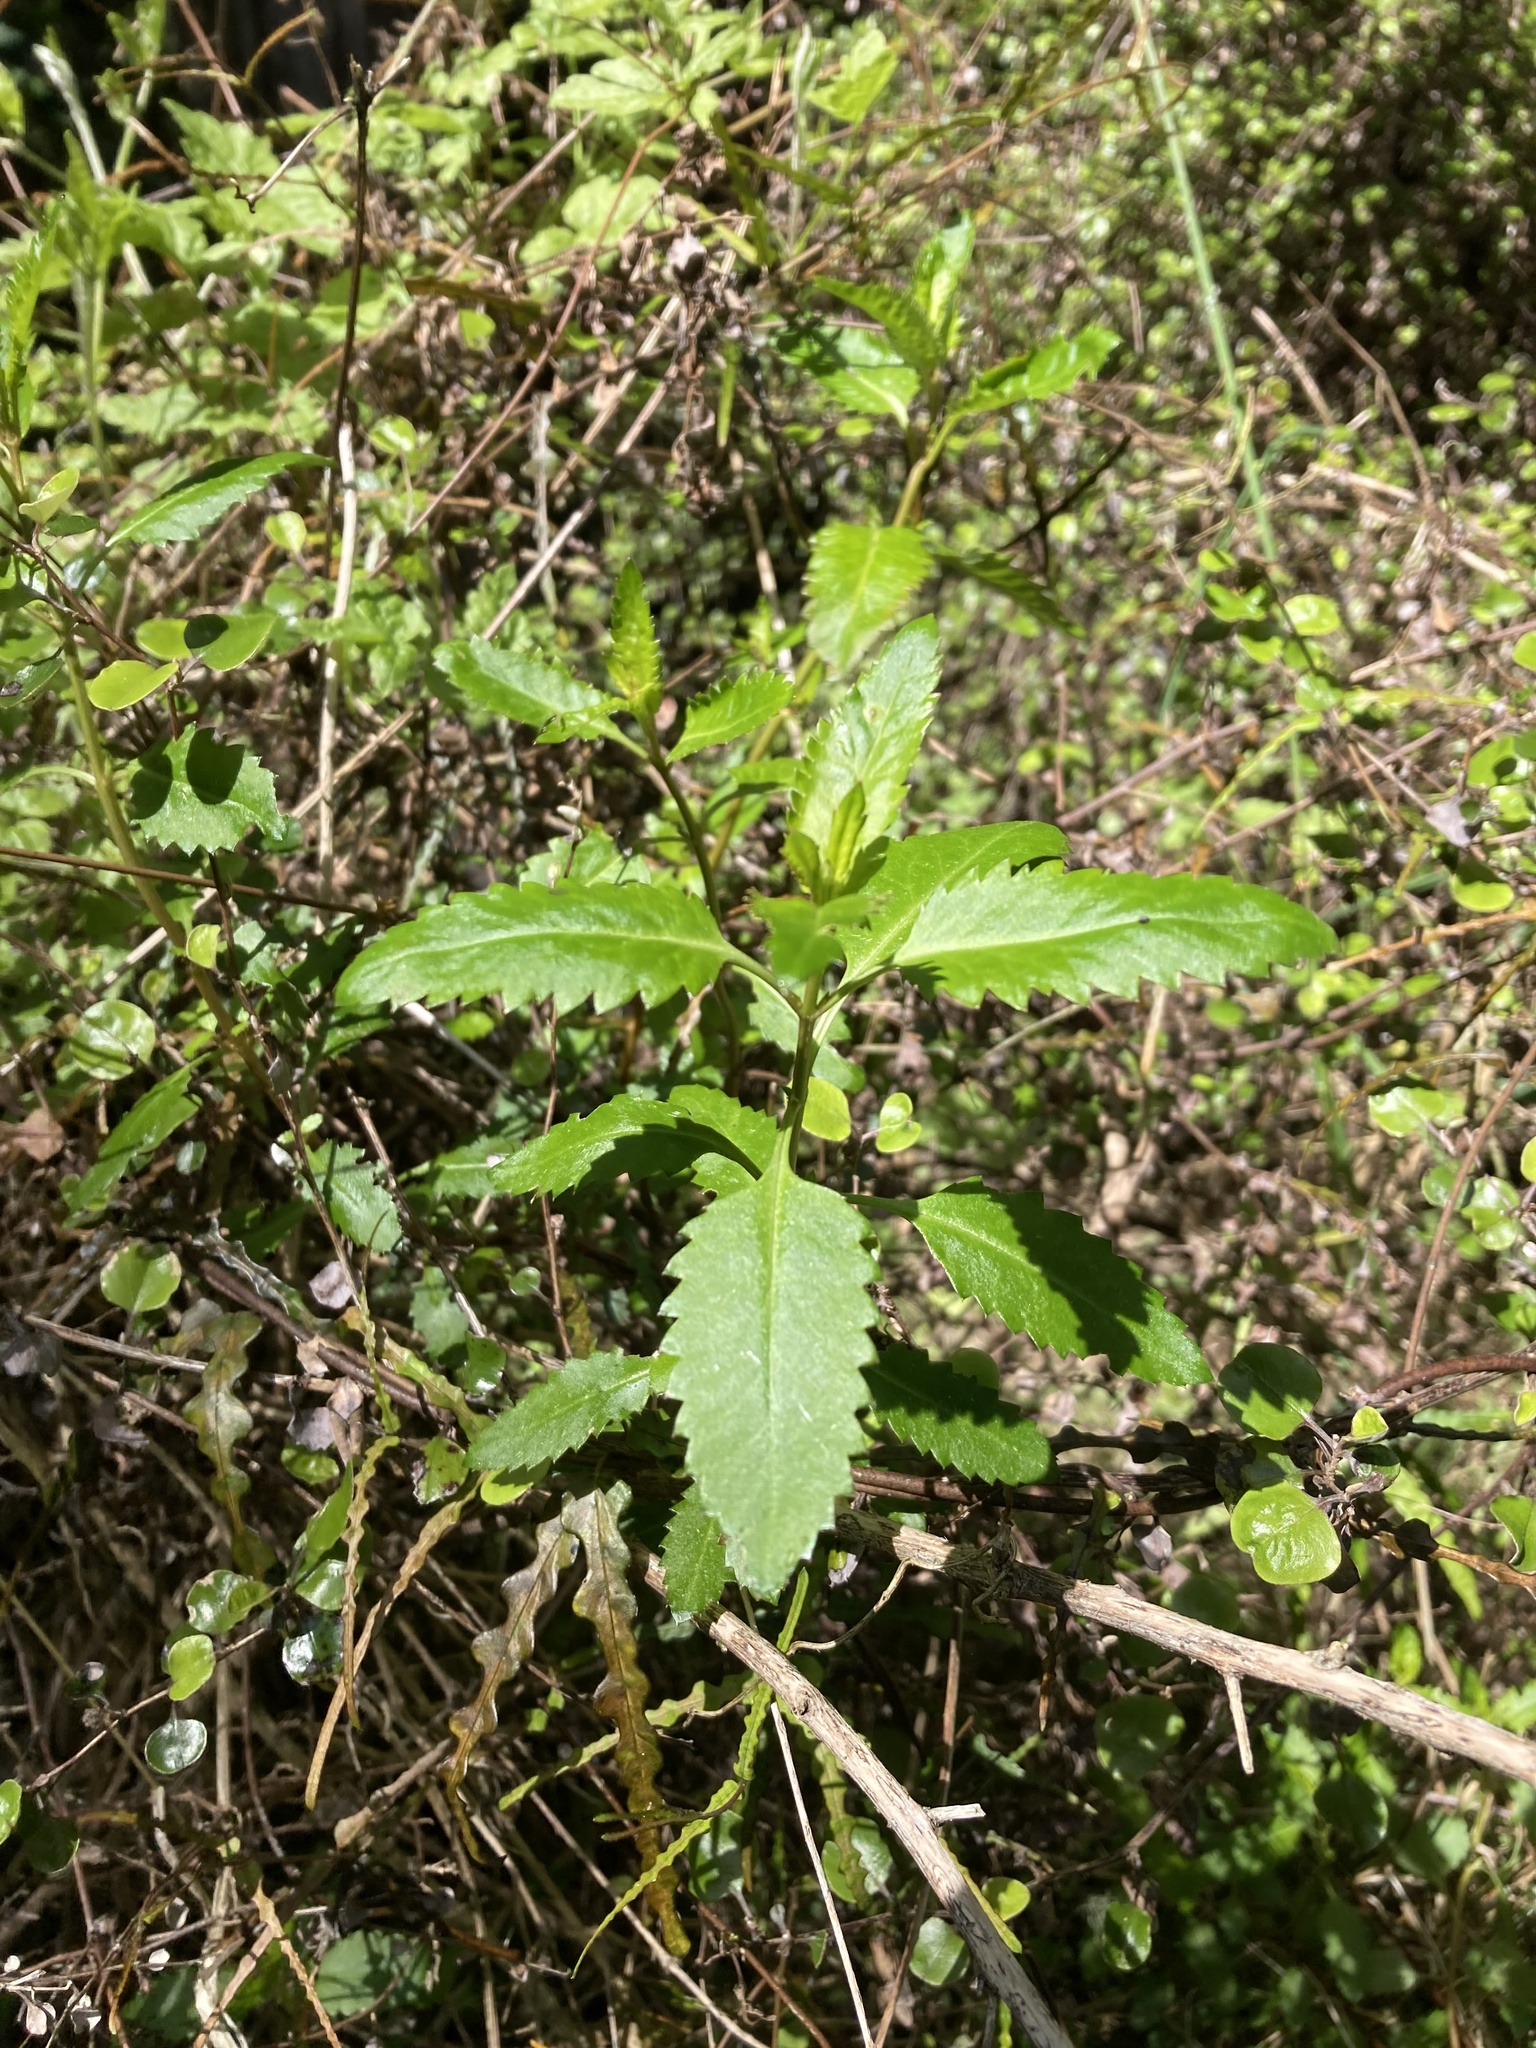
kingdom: Plantae
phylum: Tracheophyta
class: Magnoliopsida
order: Saxifragales
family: Haloragaceae
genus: Haloragis
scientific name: Haloragis erecta
